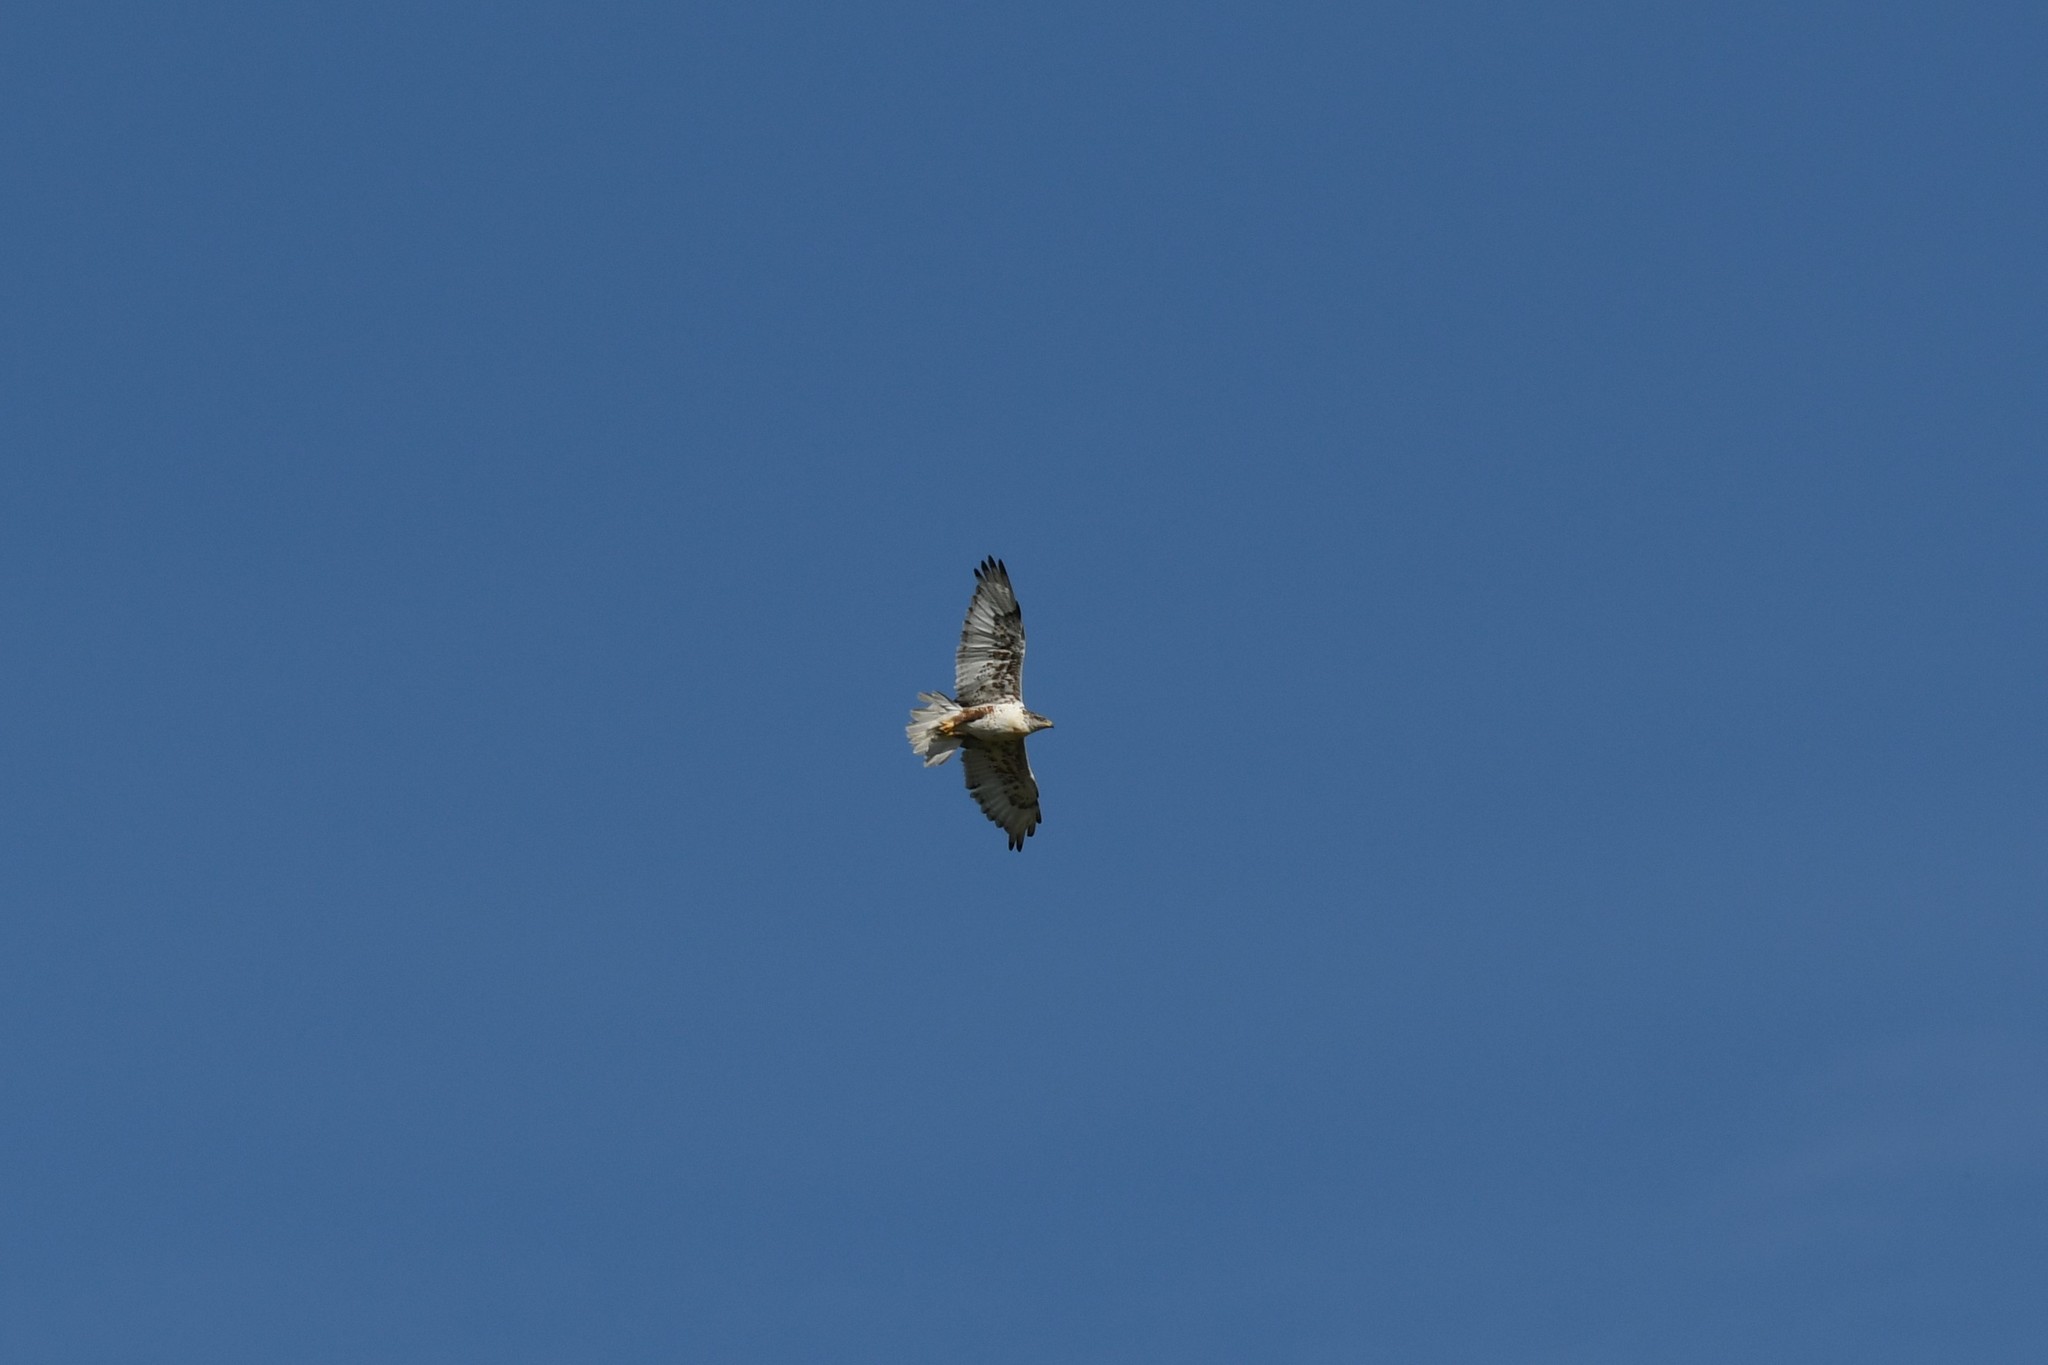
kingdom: Animalia
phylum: Chordata
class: Aves
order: Accipitriformes
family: Accipitridae
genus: Buteo
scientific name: Buteo regalis
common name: Ferruginous hawk
